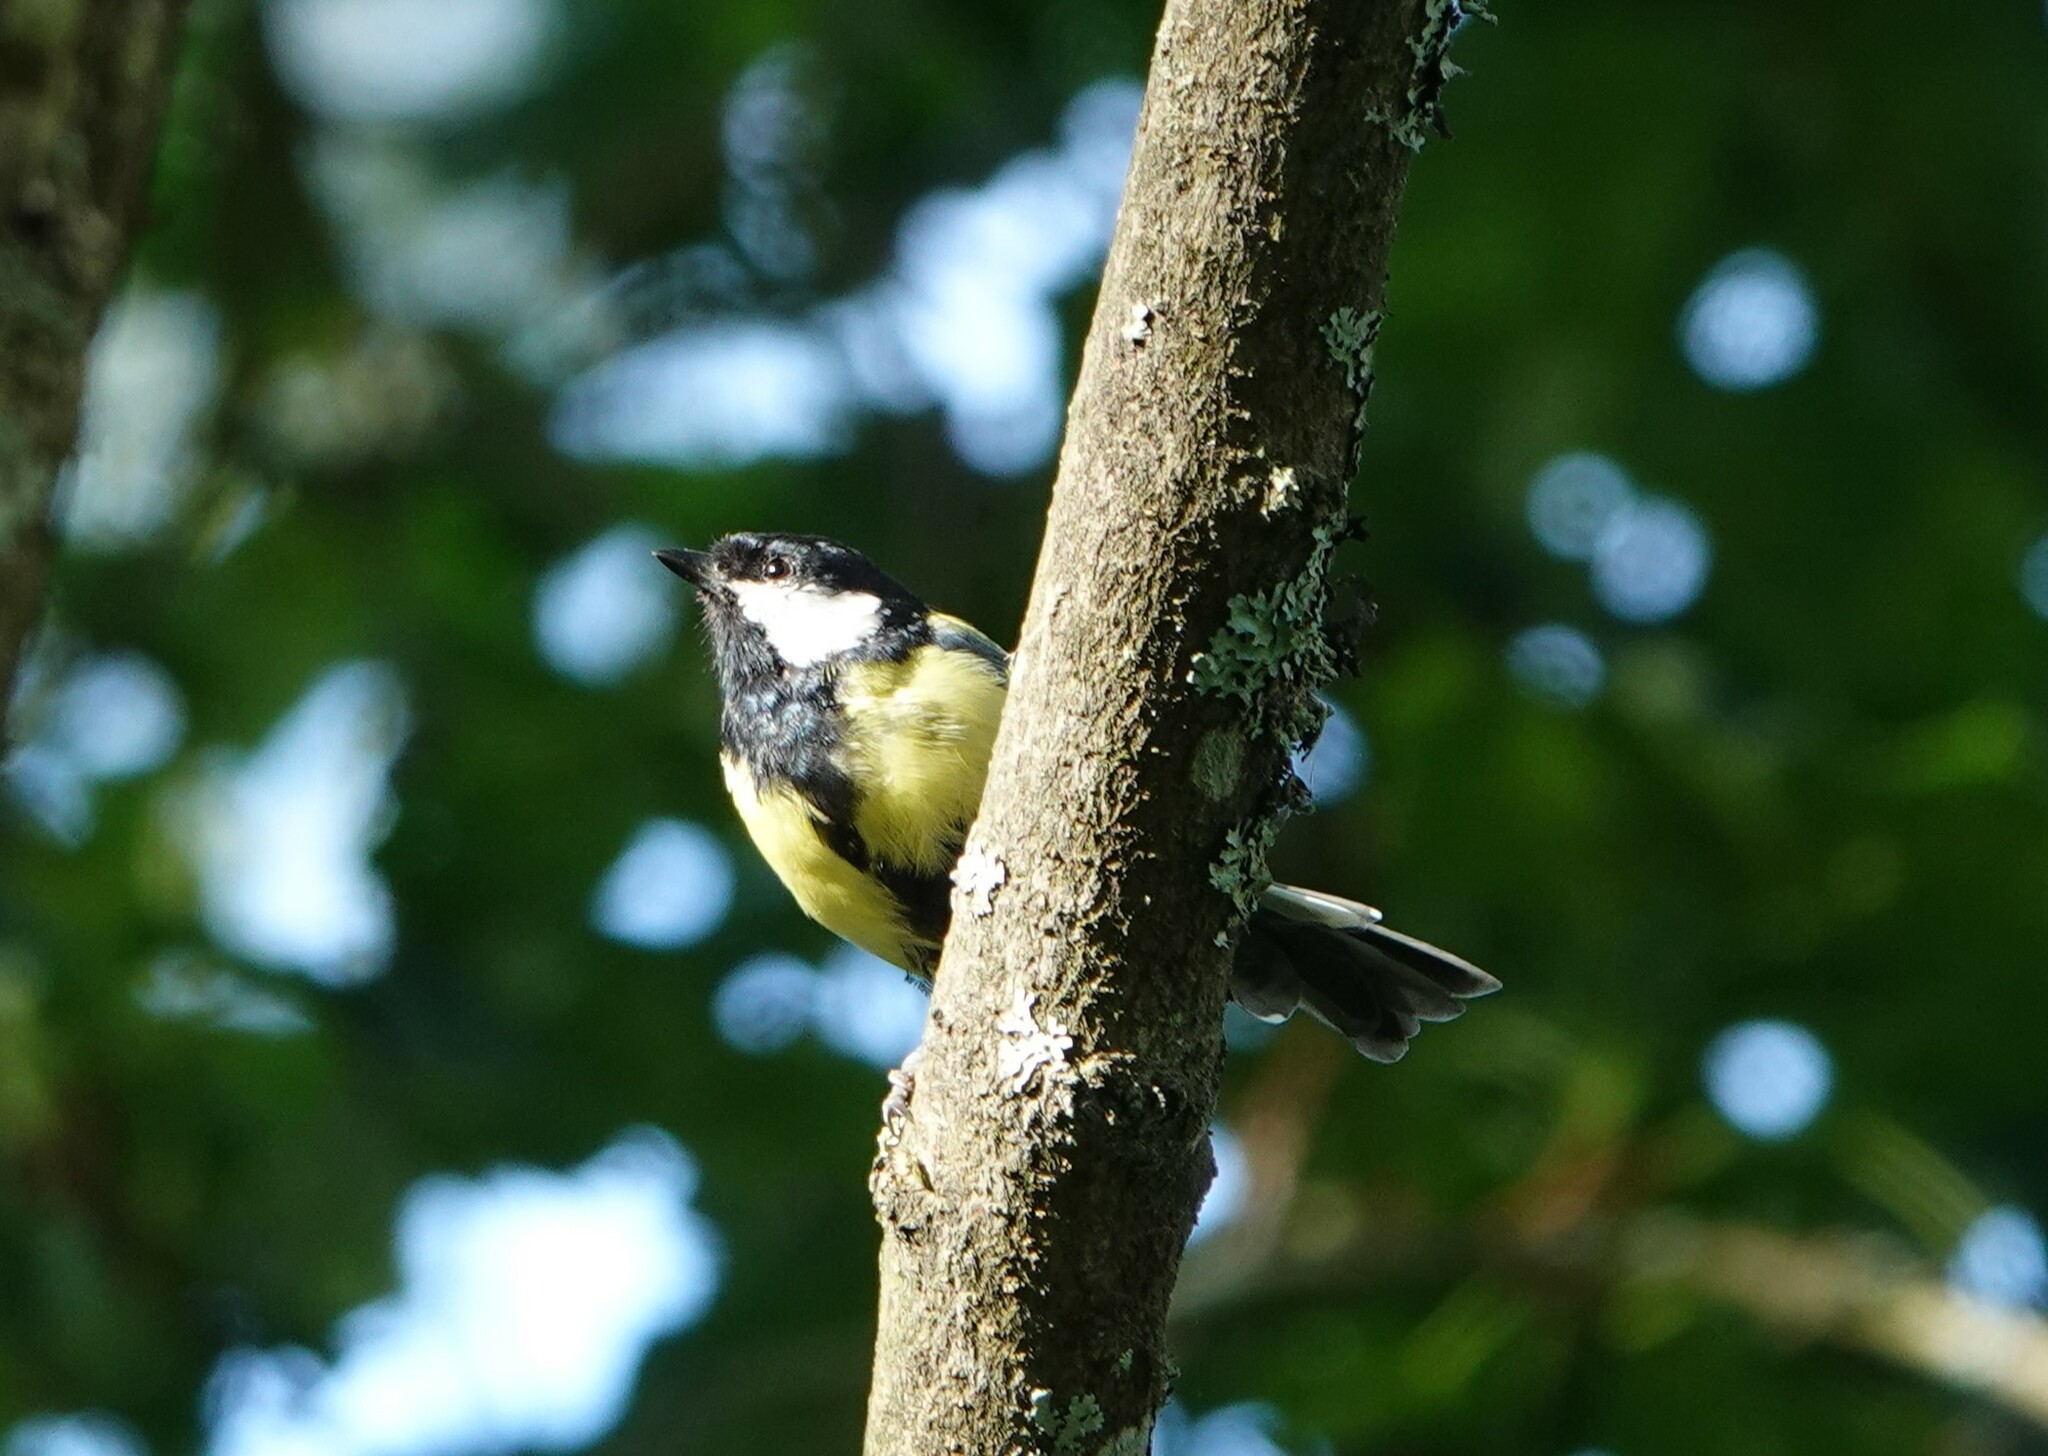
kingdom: Animalia
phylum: Chordata
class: Aves
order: Passeriformes
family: Paridae
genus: Parus
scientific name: Parus major
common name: Great tit
